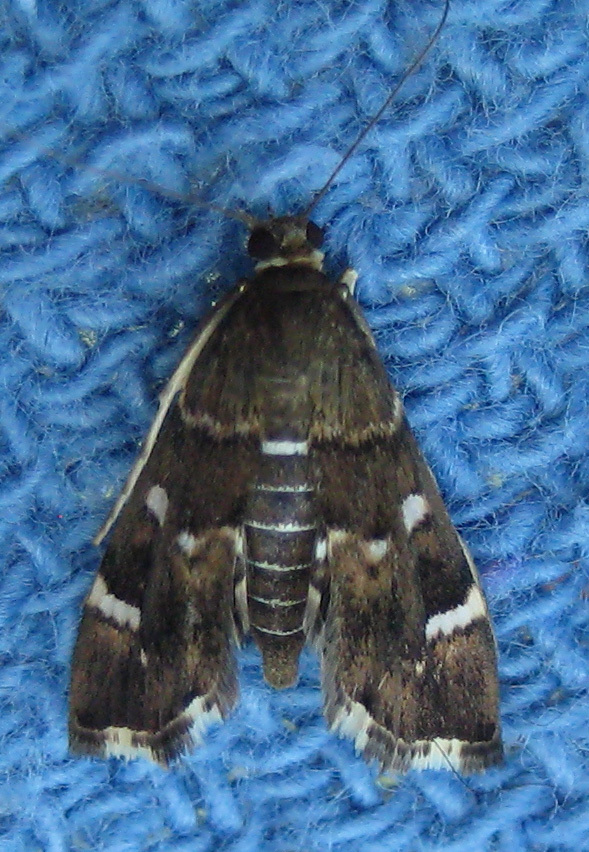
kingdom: Animalia
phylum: Arthropoda
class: Insecta
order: Lepidoptera
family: Crambidae
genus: Hymenia
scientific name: Hymenia perspectalis
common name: Spotted beet webworm
